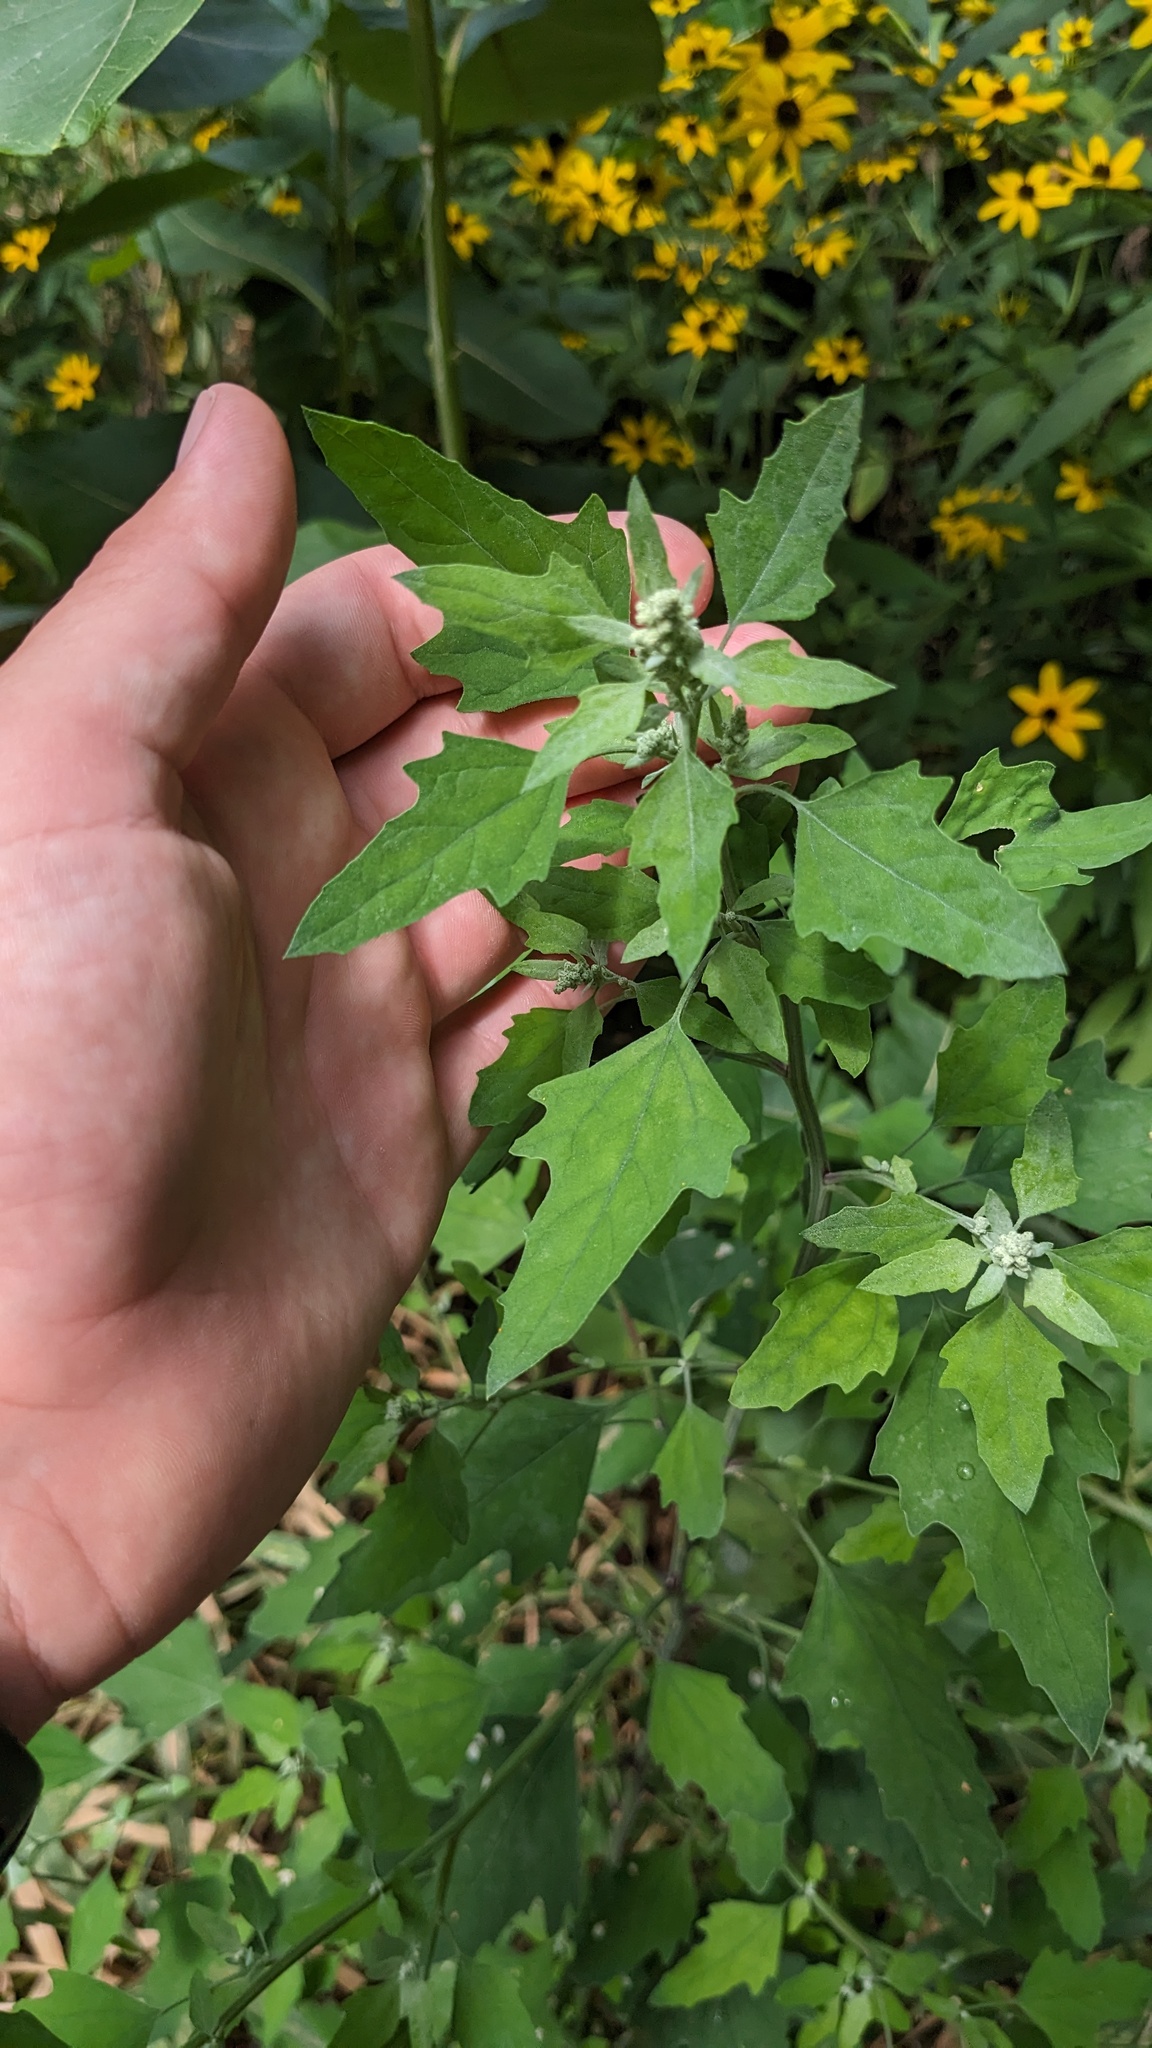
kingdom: Plantae
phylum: Tracheophyta
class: Magnoliopsida
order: Caryophyllales
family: Amaranthaceae
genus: Chenopodium
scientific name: Chenopodium album
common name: Fat-hen
